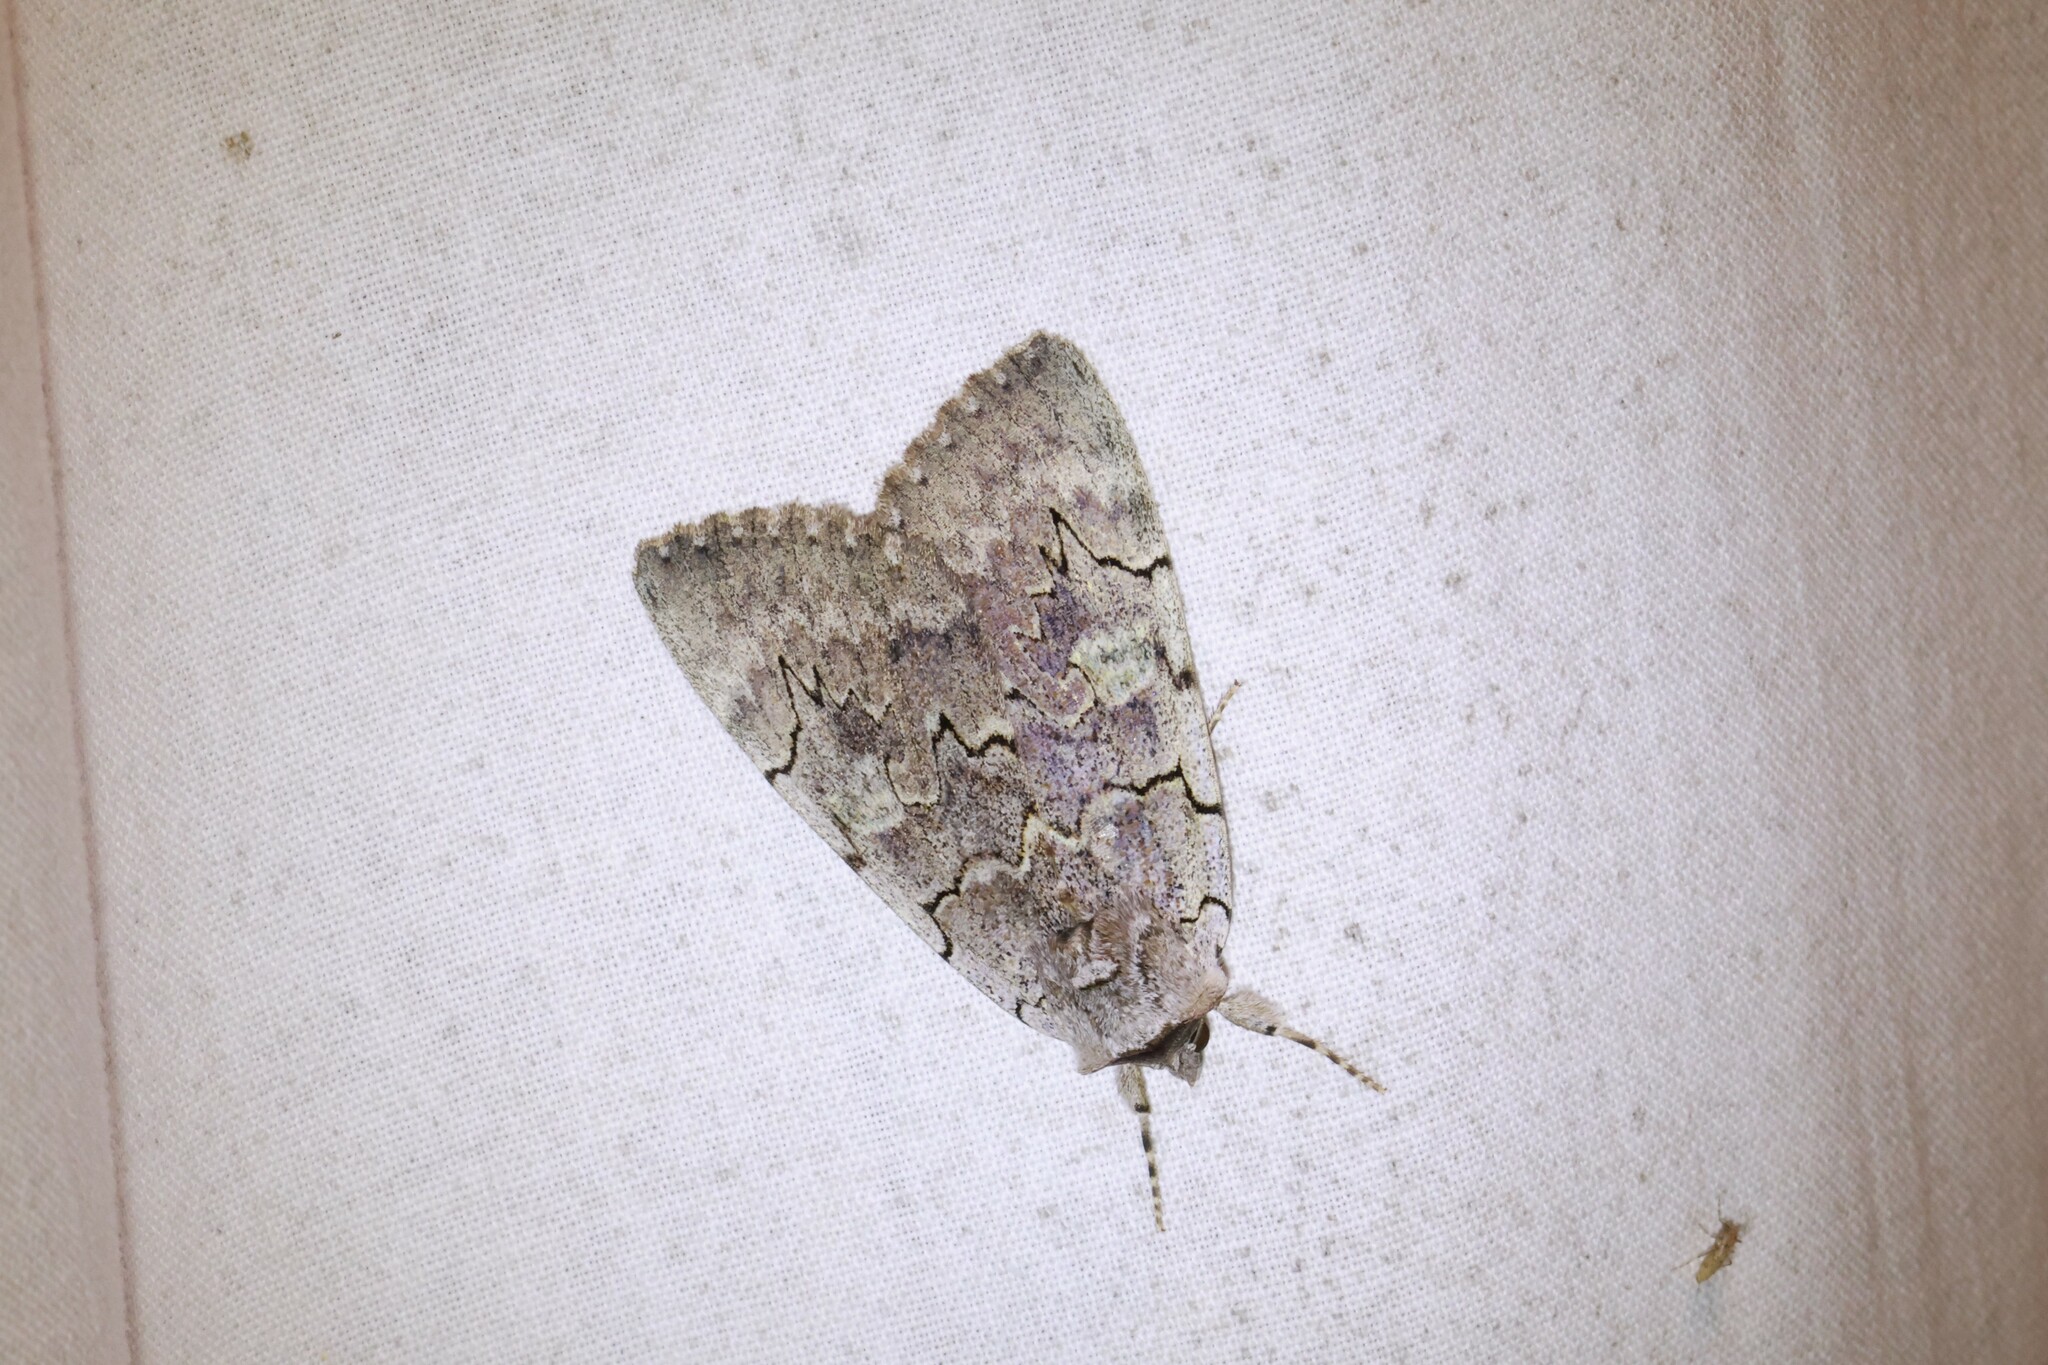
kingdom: Animalia
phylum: Arthropoda
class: Insecta
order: Lepidoptera
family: Erebidae
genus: Catocala
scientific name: Catocala concumbens
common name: Pink underwing
